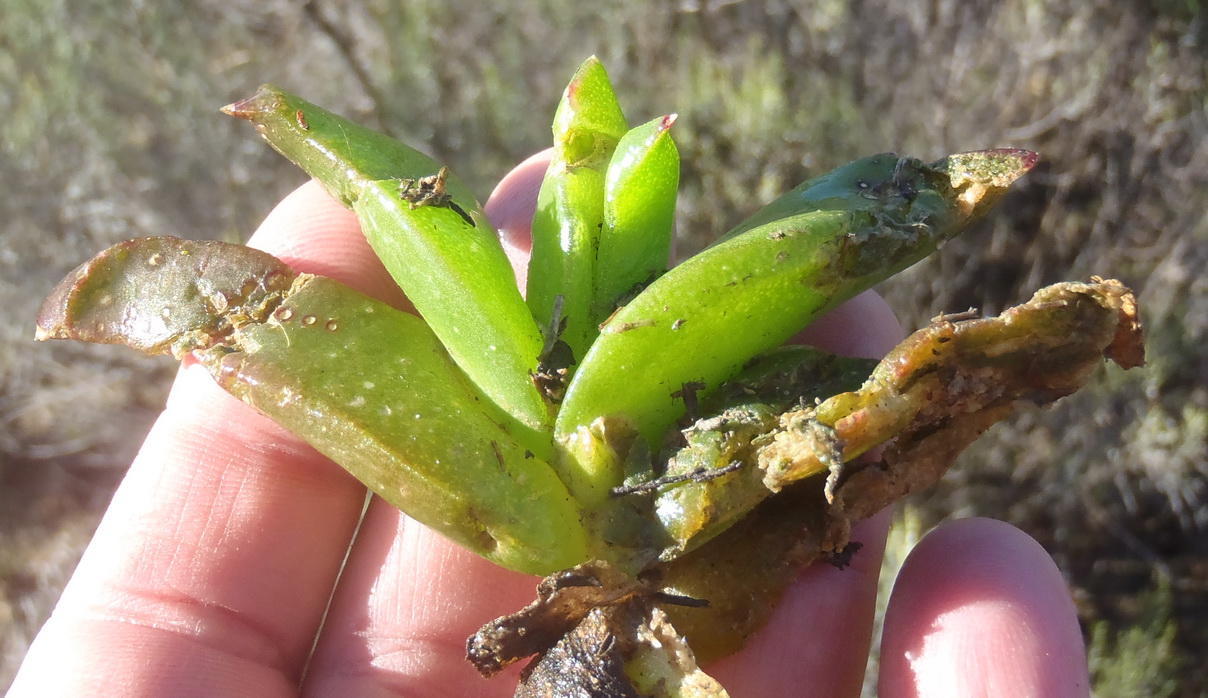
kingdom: Plantae
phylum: Tracheophyta
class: Magnoliopsida
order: Caryophyllales
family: Aizoaceae
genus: Glottiphyllum
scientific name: Glottiphyllum depressum
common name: Fig-marigold
